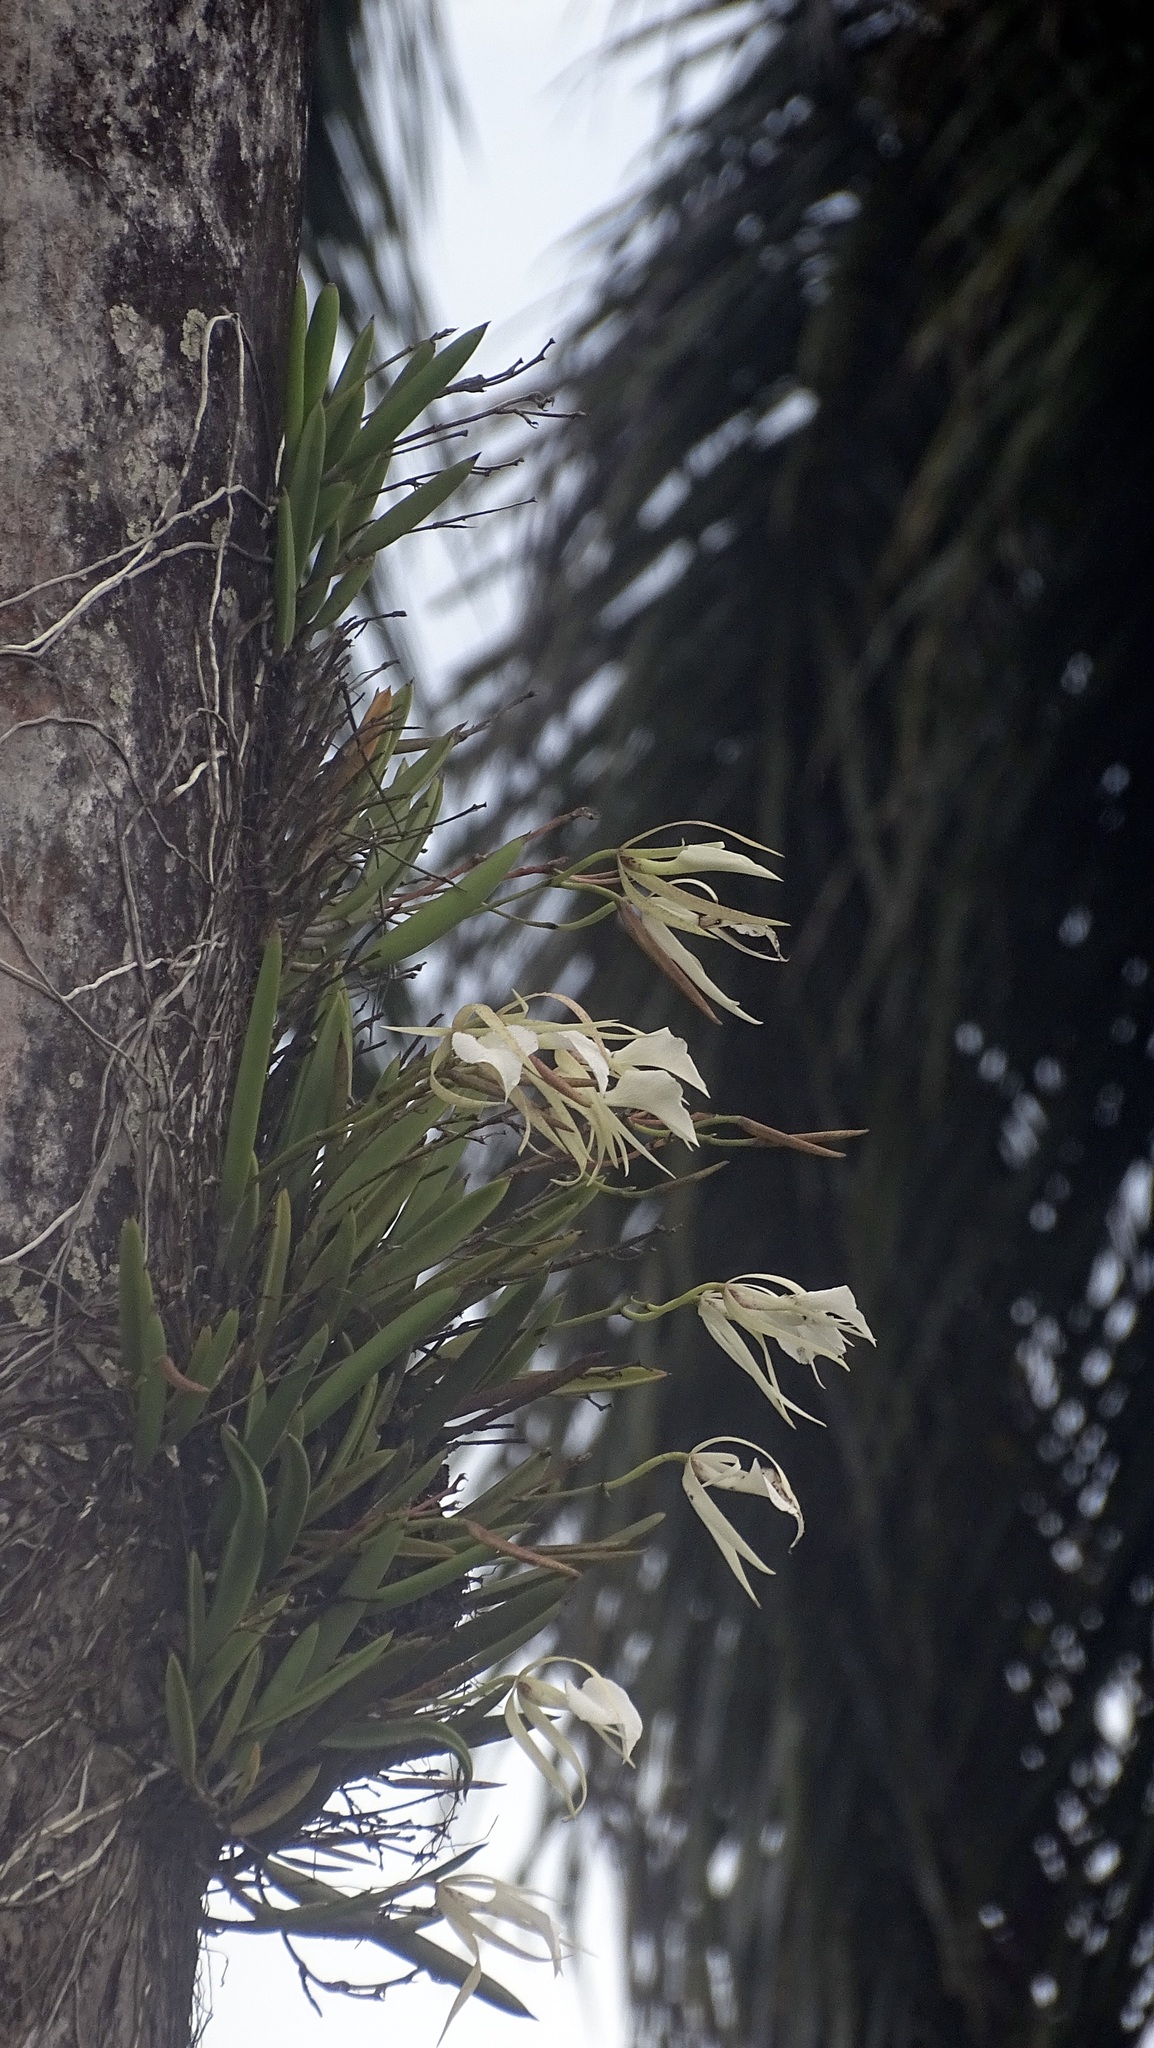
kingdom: Plantae
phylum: Tracheophyta
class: Liliopsida
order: Asparagales
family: Orchidaceae
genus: Brassavola
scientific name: Brassavola nodosa
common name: Lady of the night
